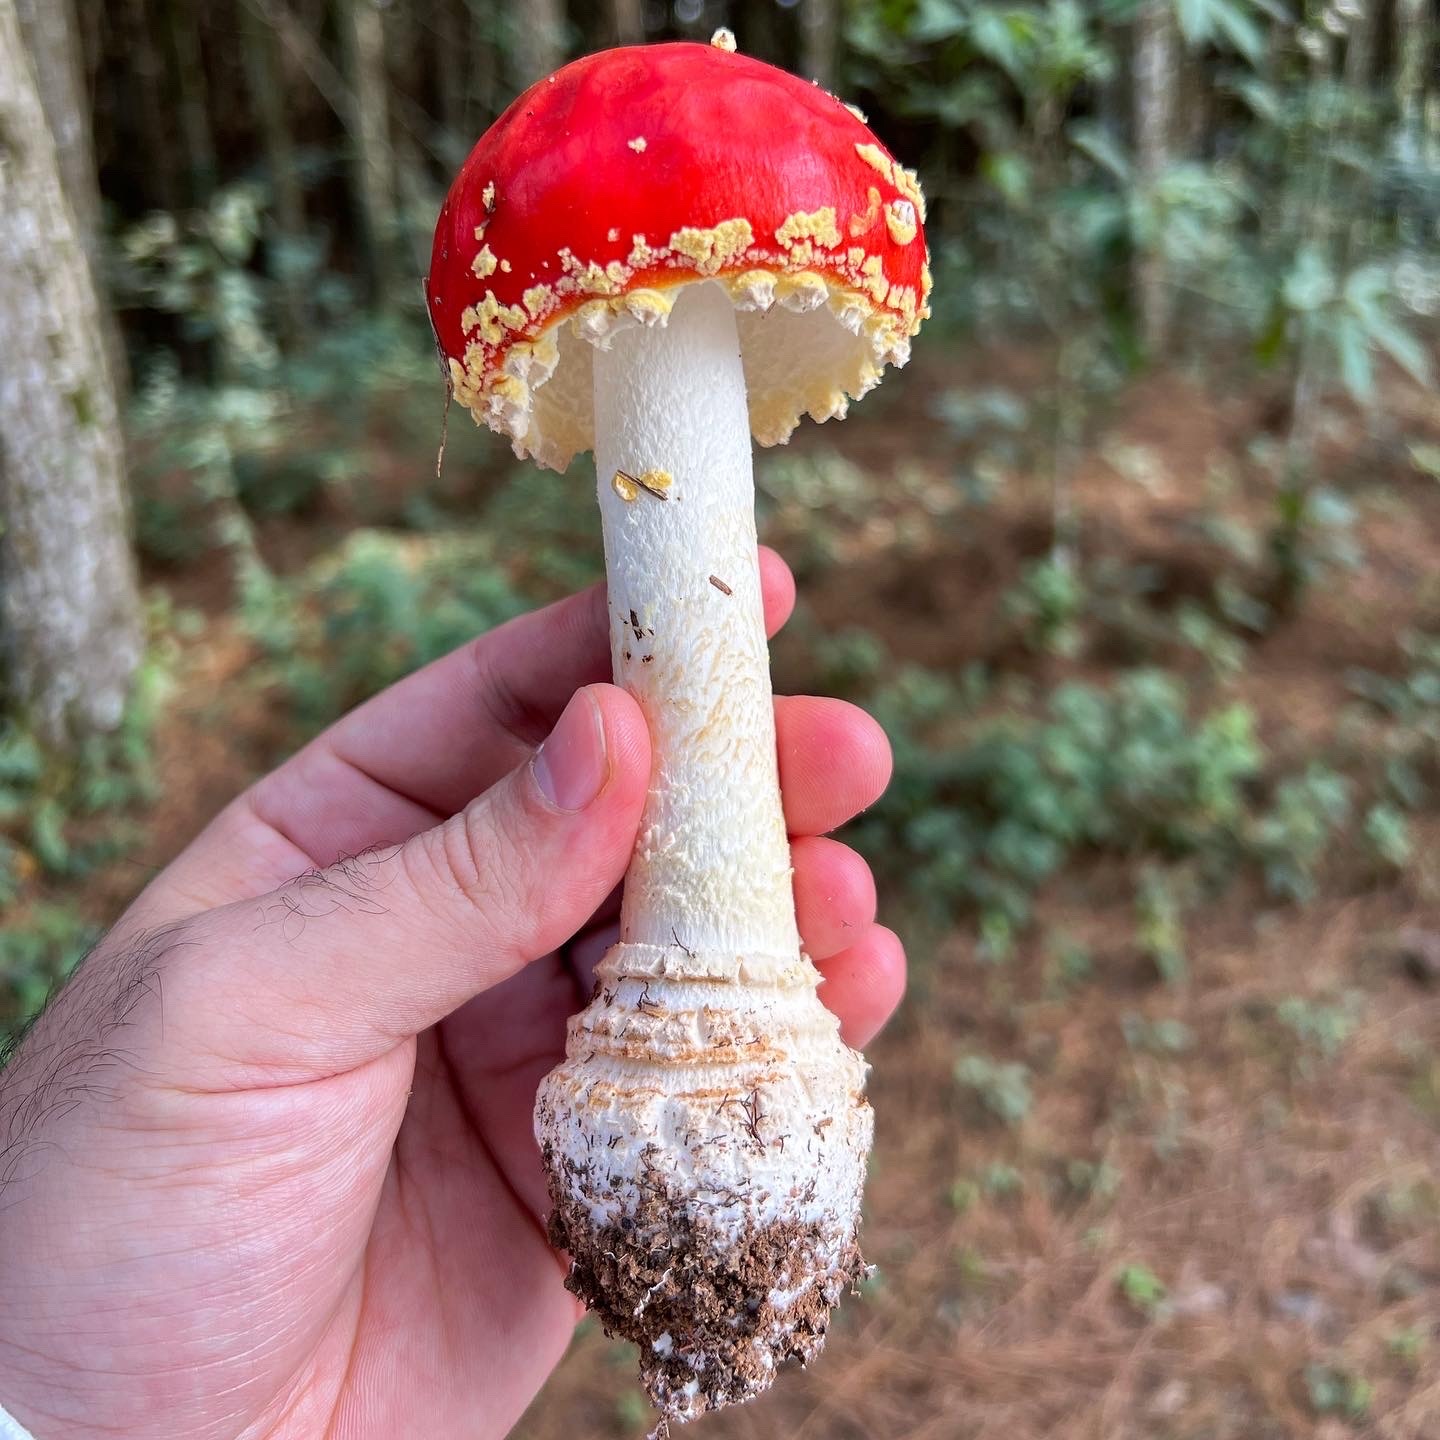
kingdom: Fungi
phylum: Basidiomycota
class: Agaricomycetes
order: Agaricales
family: Amanitaceae
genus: Amanita
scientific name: Amanita muscaria
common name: Fly agaric
